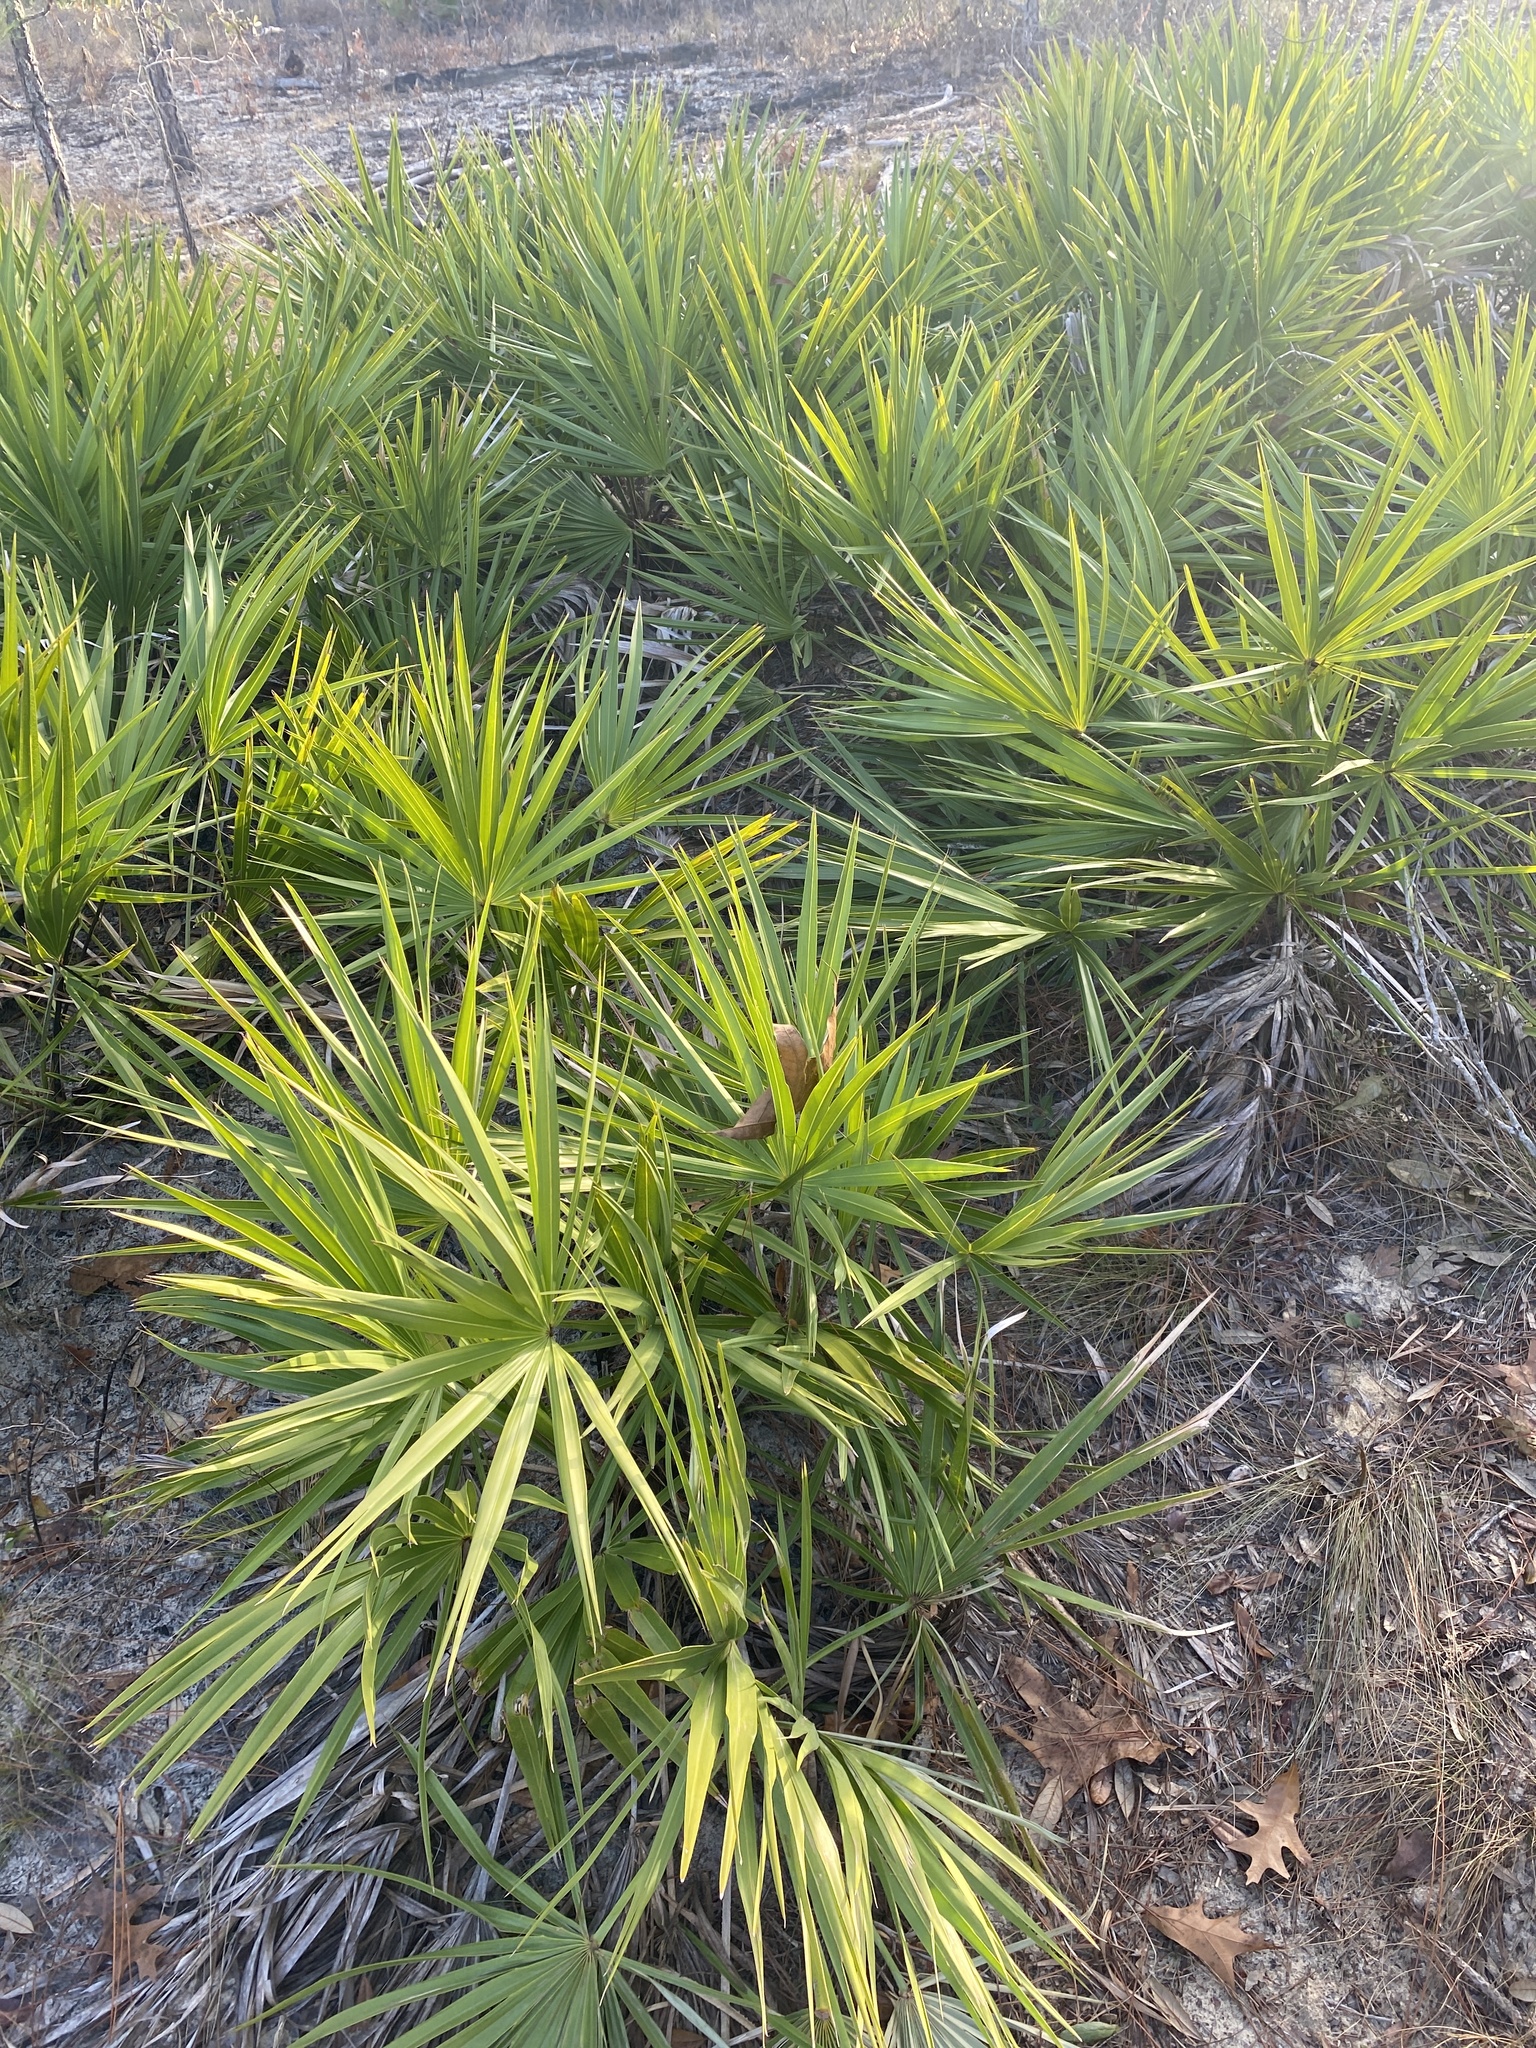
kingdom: Plantae
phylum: Tracheophyta
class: Liliopsida
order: Arecales
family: Arecaceae
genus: Serenoa
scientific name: Serenoa repens
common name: Saw-palmetto
